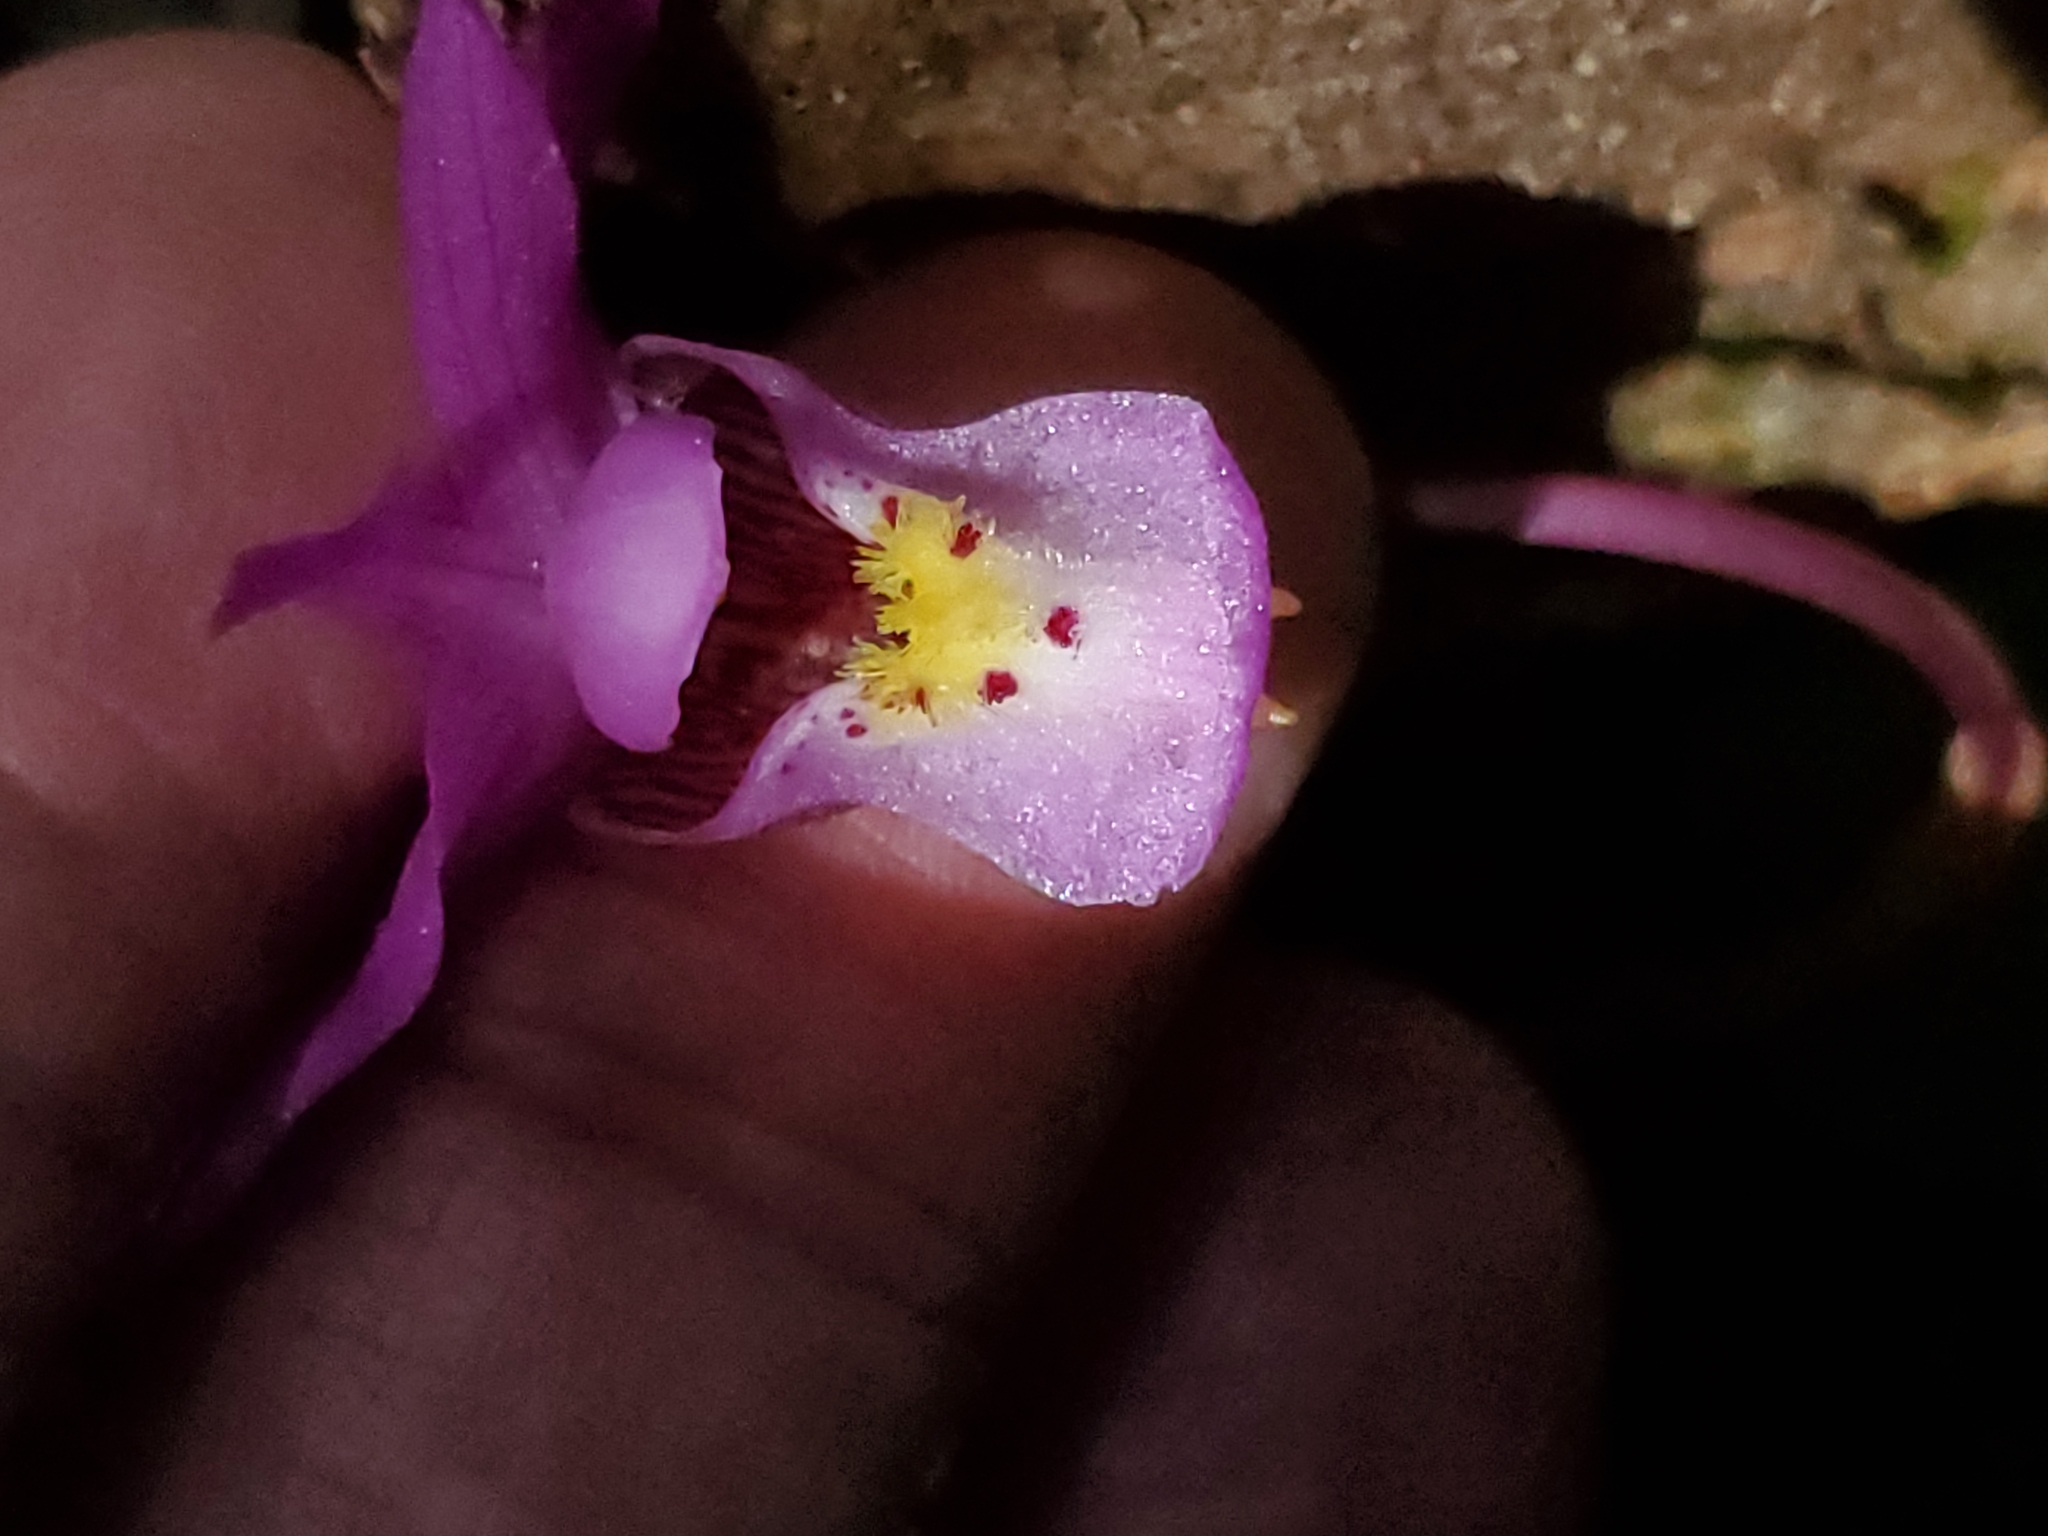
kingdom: Plantae
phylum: Tracheophyta
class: Liliopsida
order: Asparagales
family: Orchidaceae
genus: Calypso
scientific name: Calypso bulbosa
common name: Calypso
